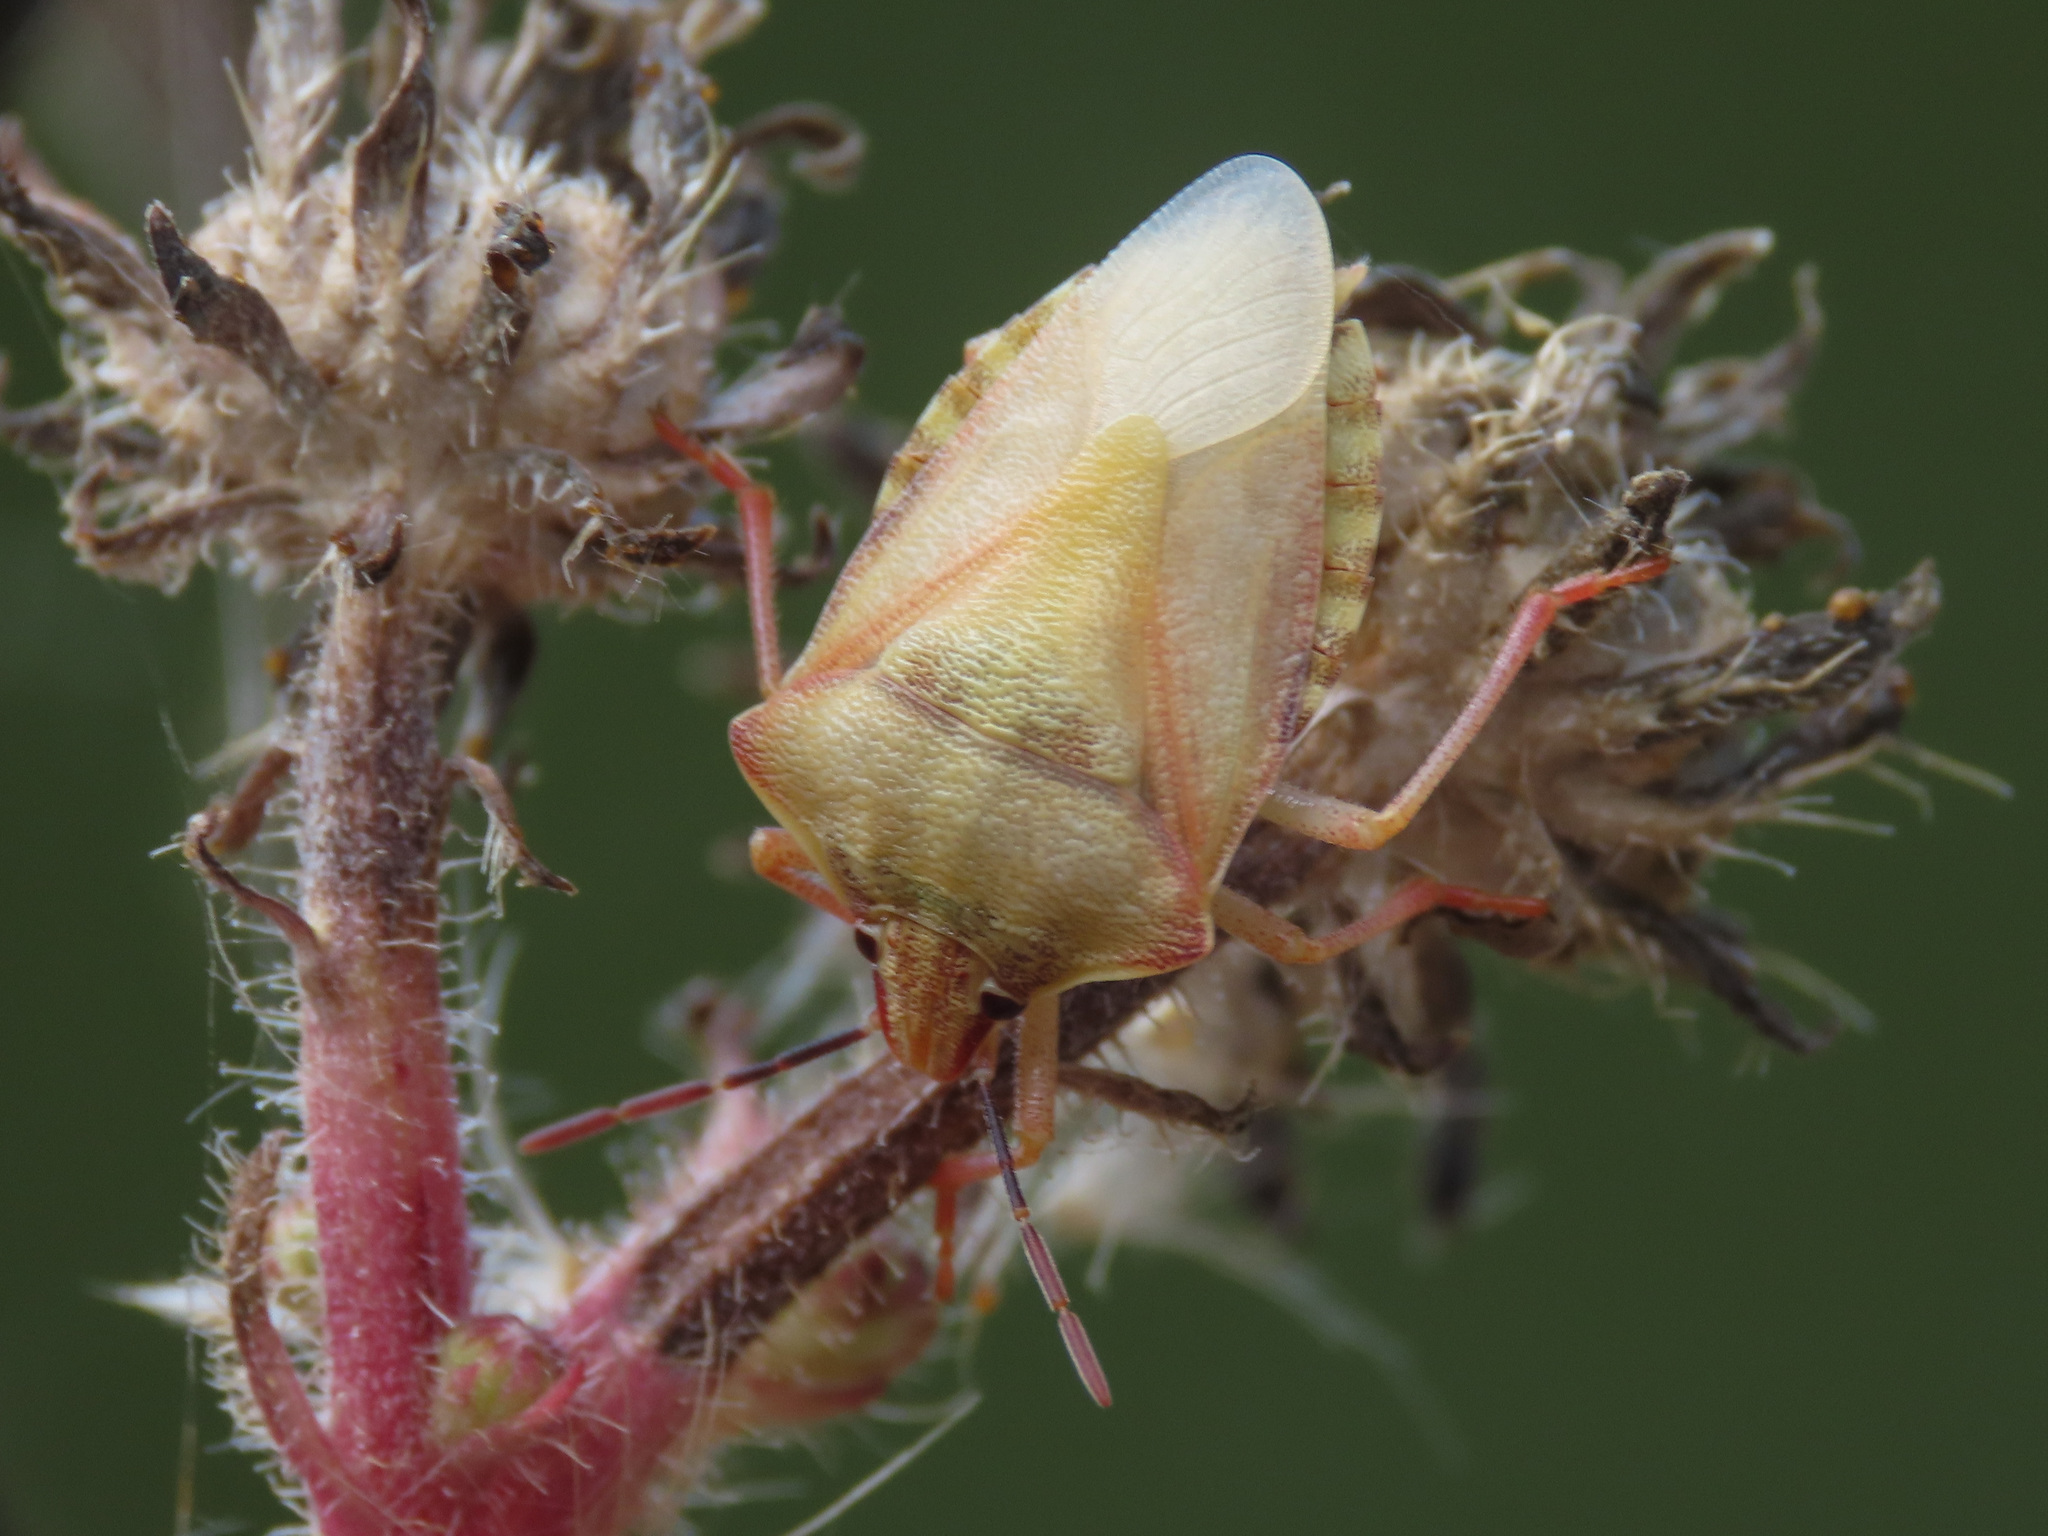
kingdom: Animalia
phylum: Arthropoda
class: Insecta
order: Hemiptera
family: Pentatomidae
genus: Carpocoris
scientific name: Carpocoris purpureipennis
